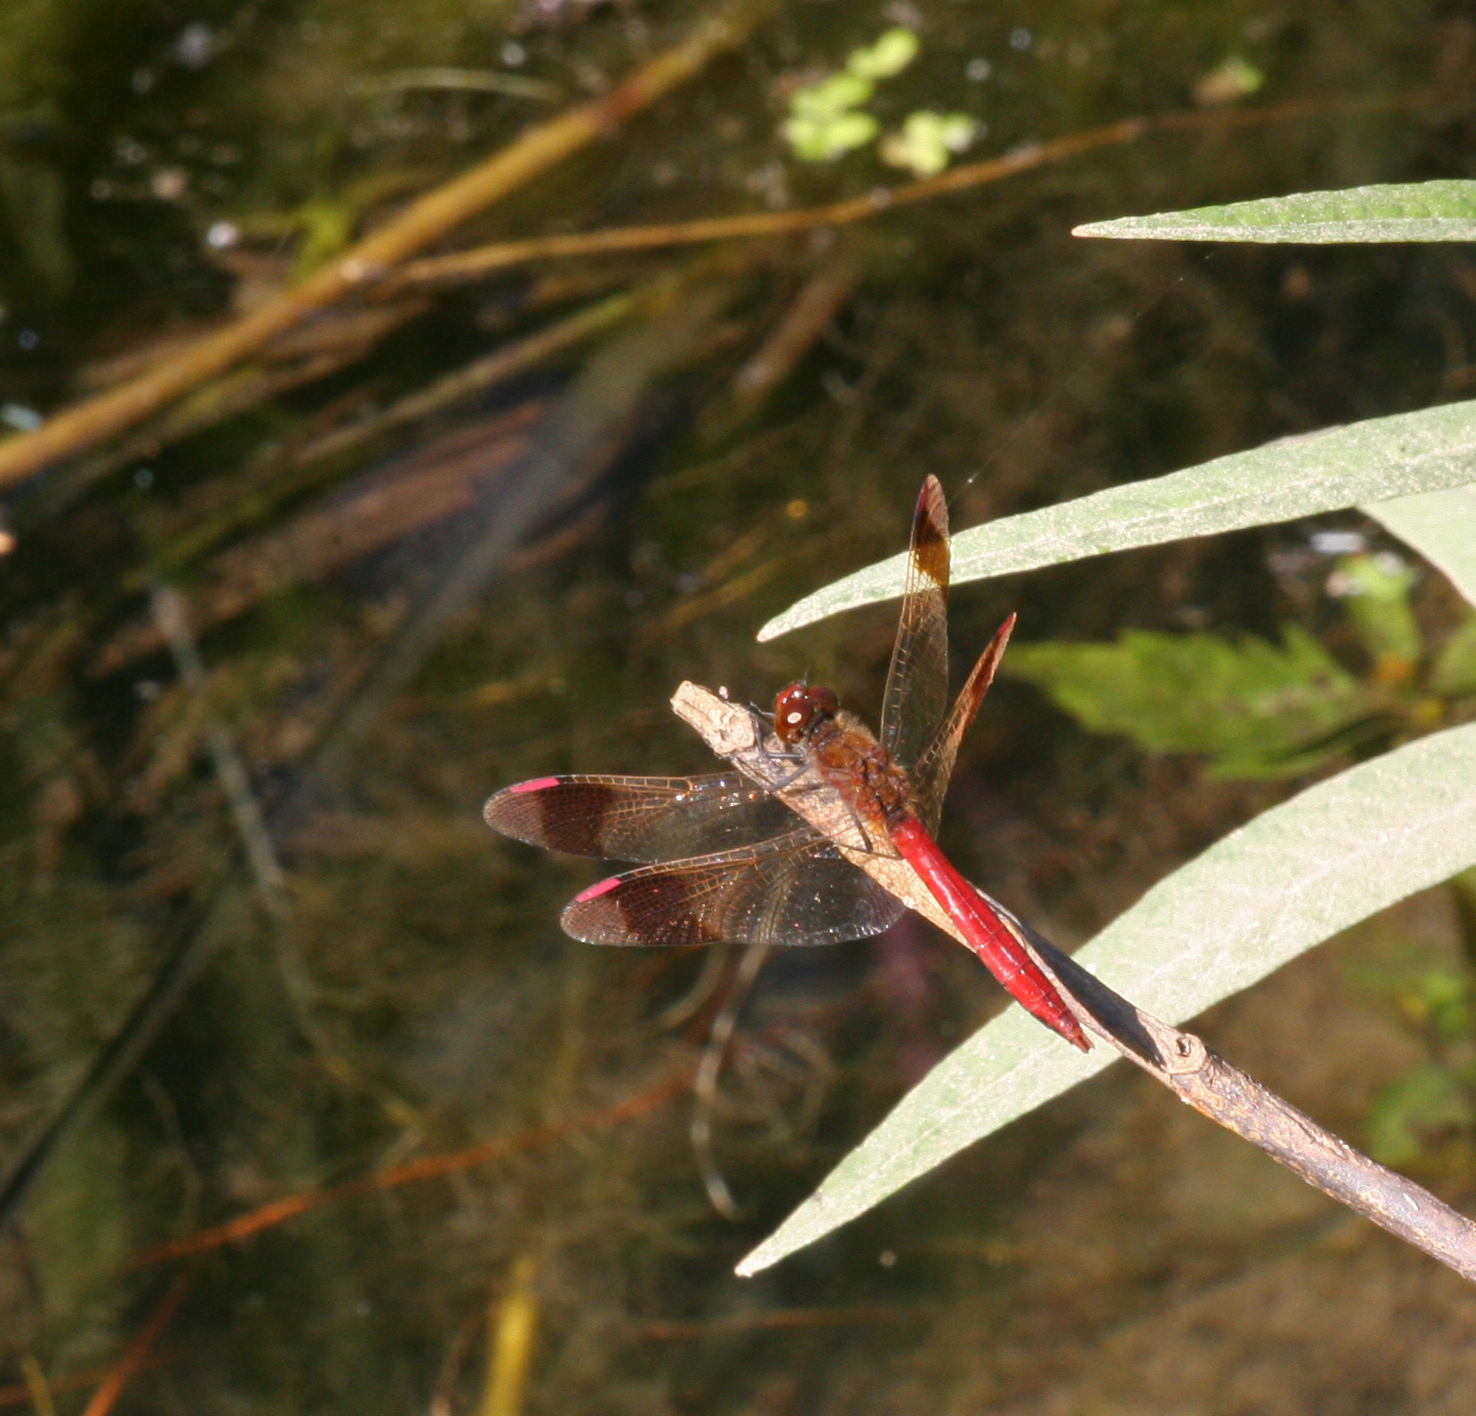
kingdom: Animalia
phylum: Arthropoda
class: Insecta
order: Odonata
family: Libellulidae
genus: Sympetrum
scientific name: Sympetrum pedemontanum
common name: Banded darter
